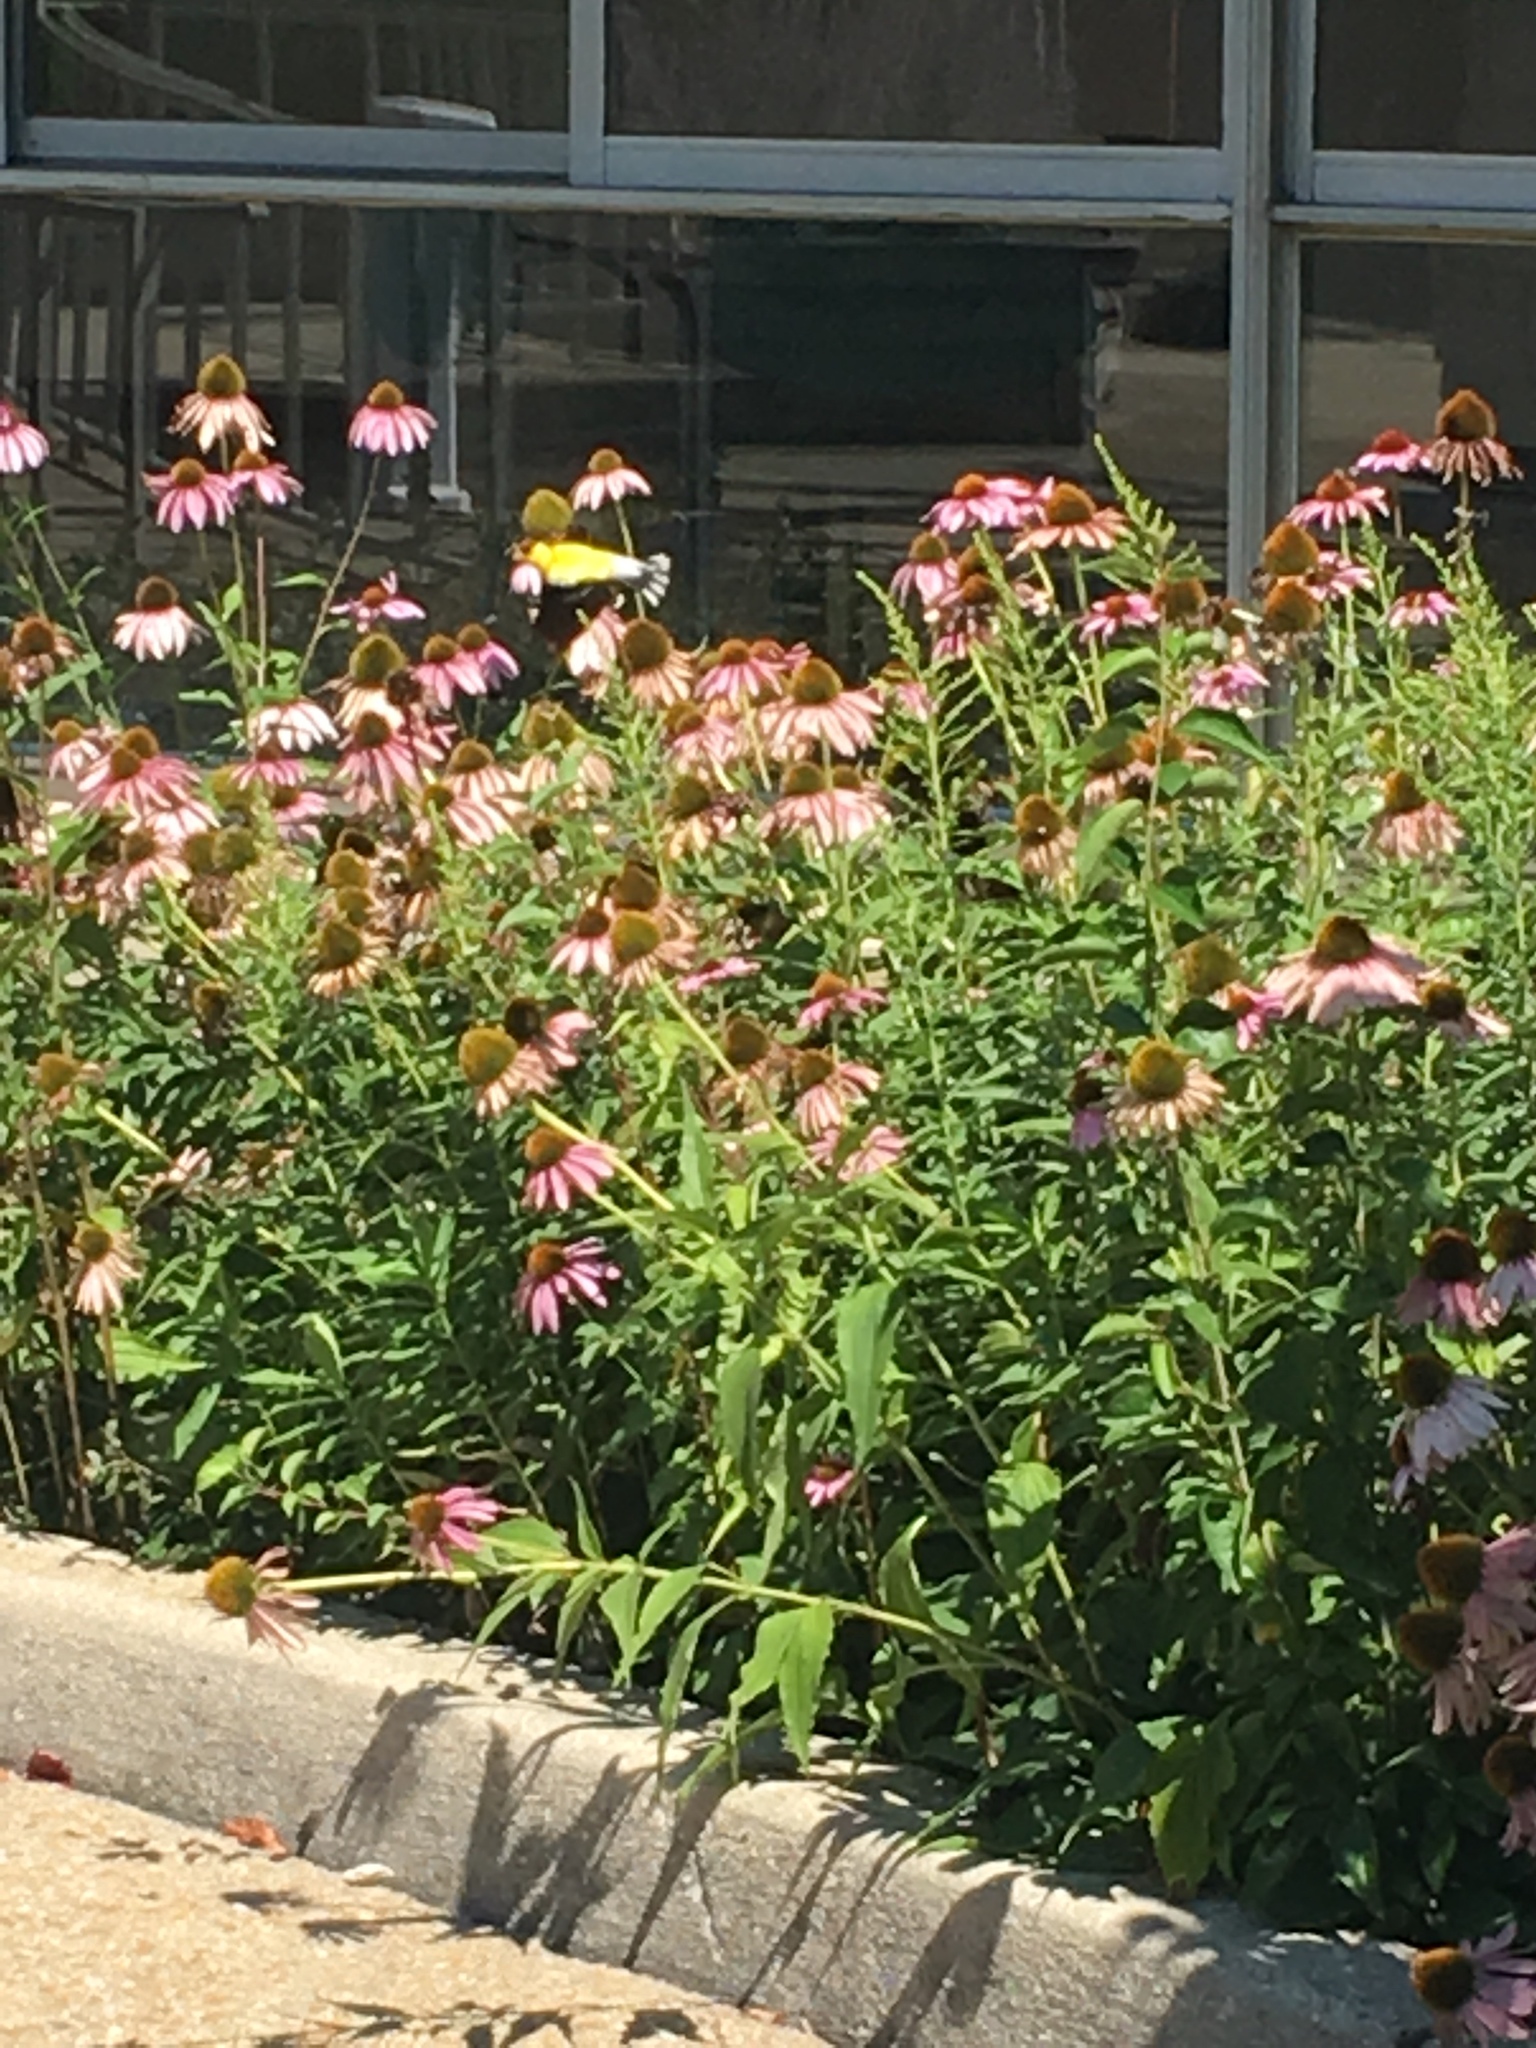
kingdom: Animalia
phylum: Chordata
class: Aves
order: Passeriformes
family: Fringillidae
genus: Spinus
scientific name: Spinus tristis
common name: American goldfinch
